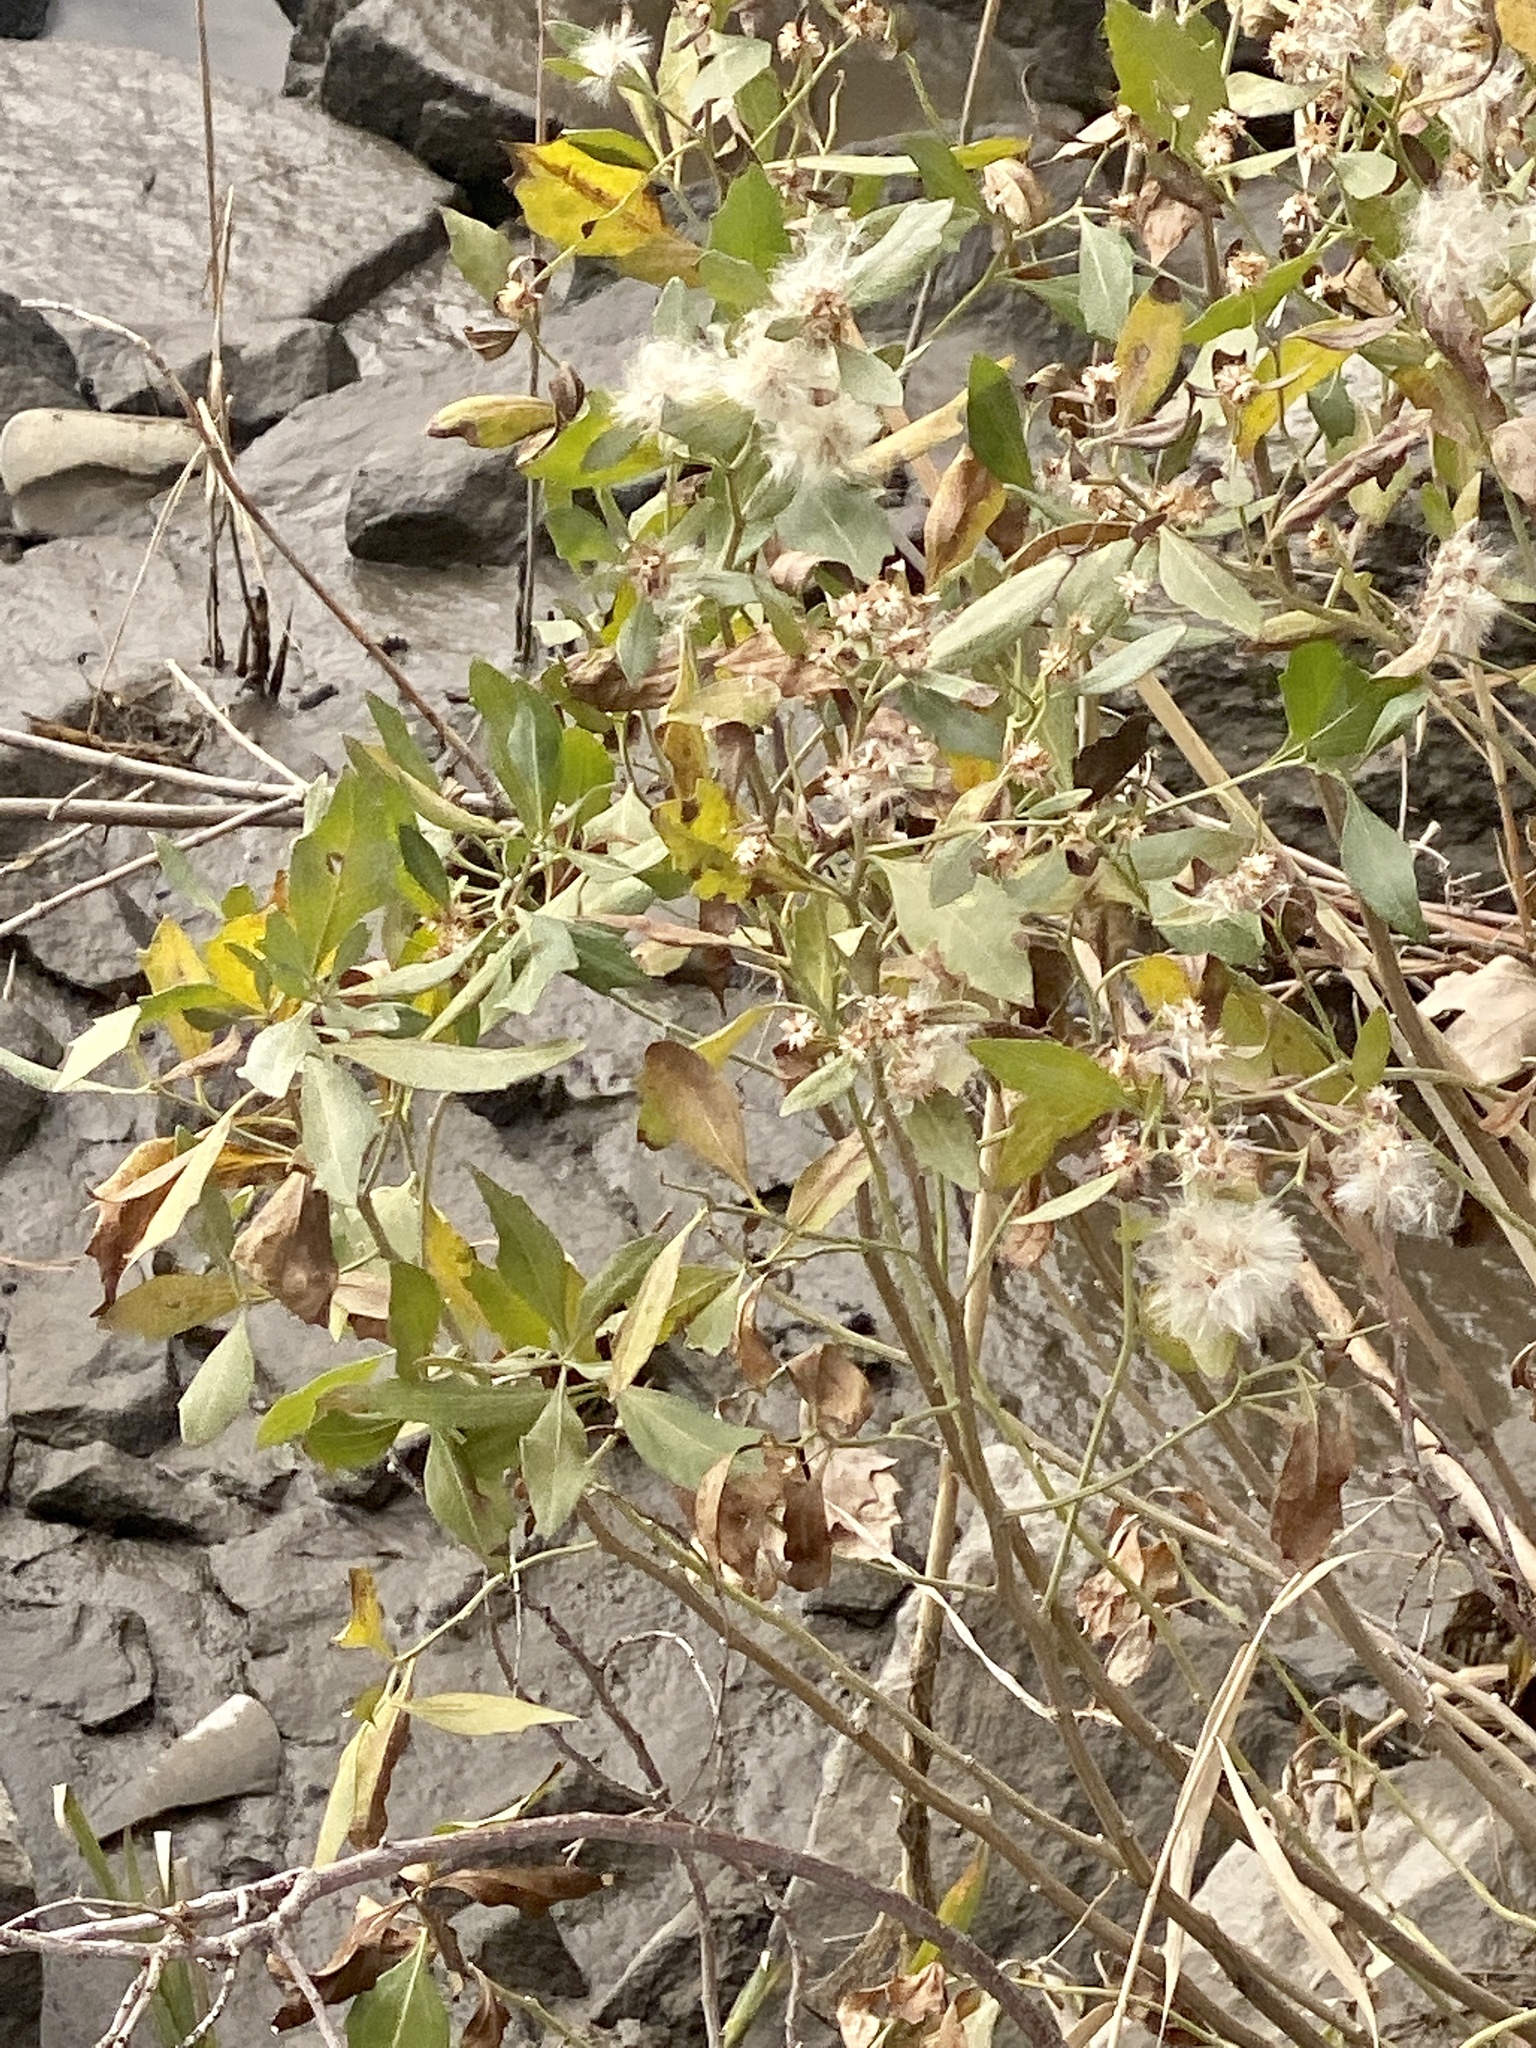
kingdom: Plantae
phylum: Tracheophyta
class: Magnoliopsida
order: Asterales
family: Asteraceae
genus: Baccharis
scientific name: Baccharis halimifolia
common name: Eastern baccharis
